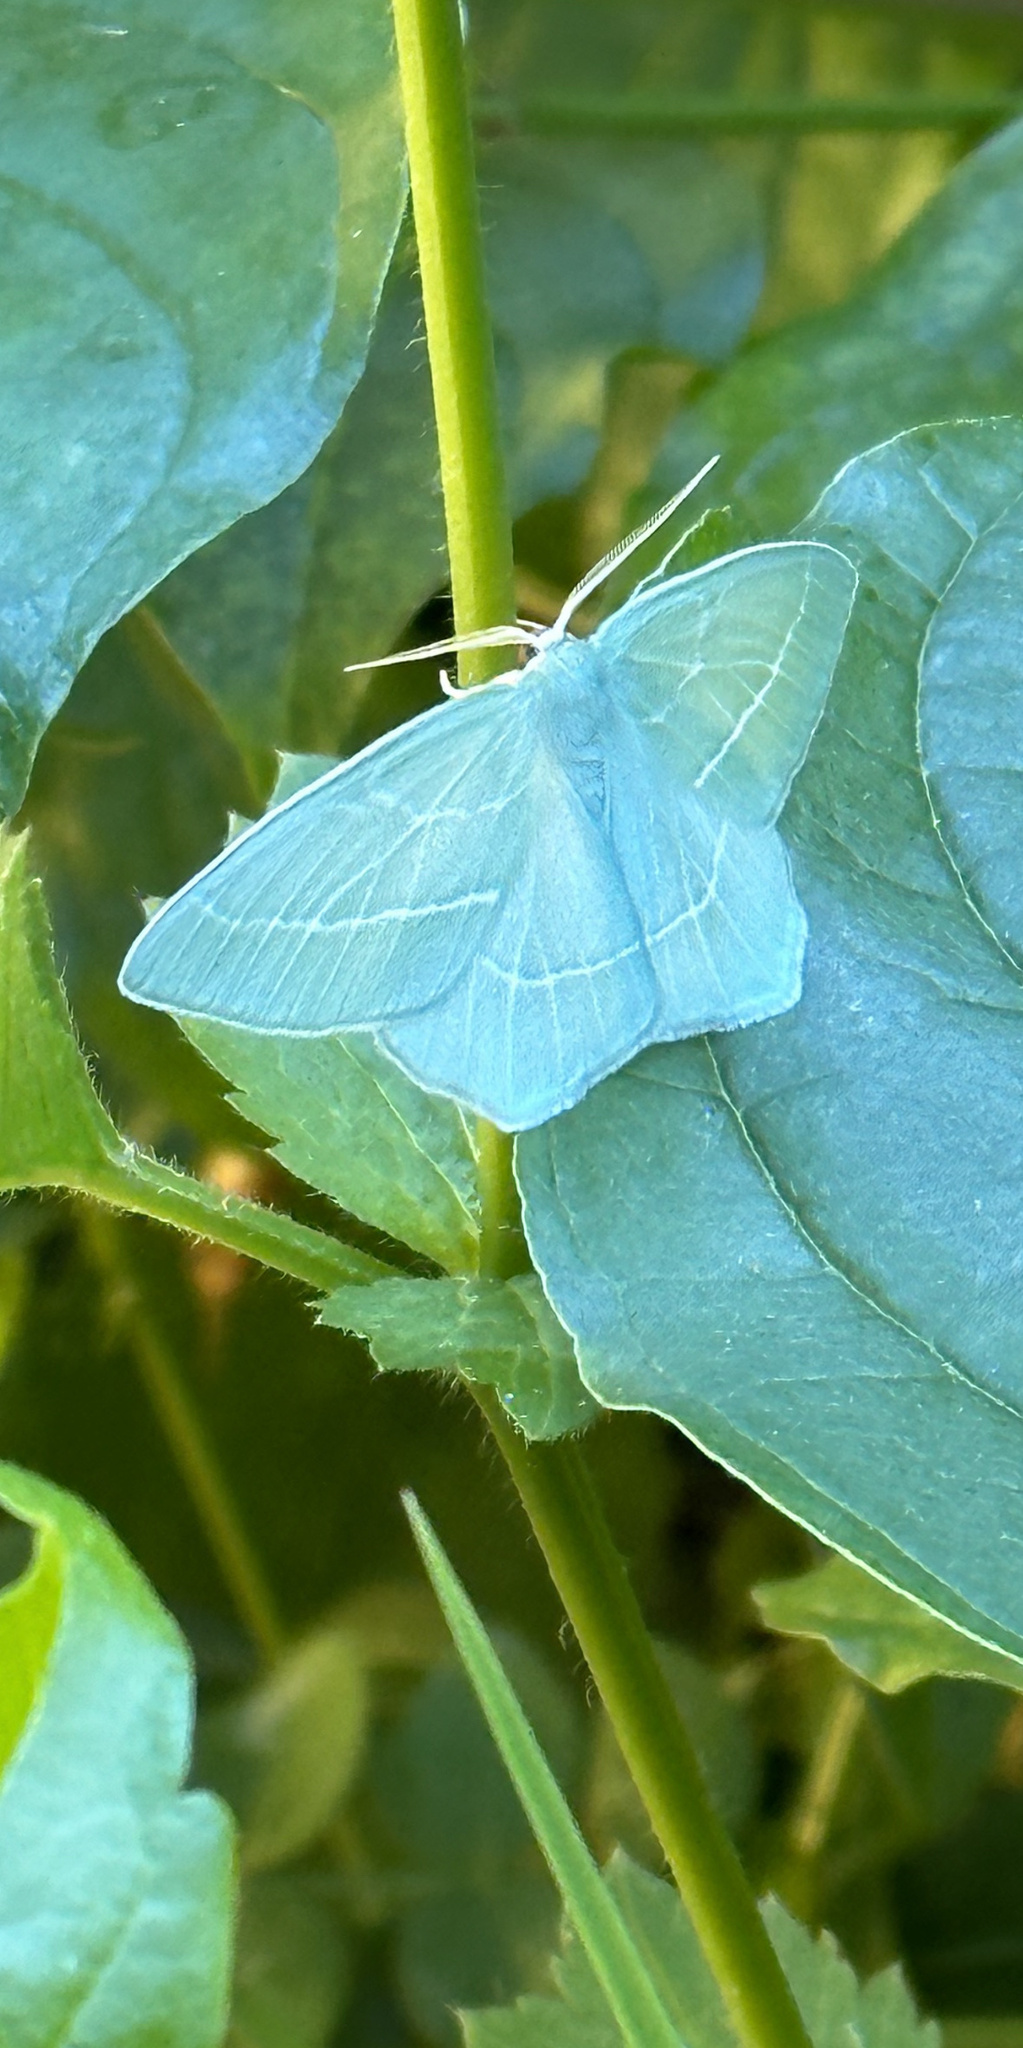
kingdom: Animalia
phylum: Arthropoda
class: Insecta
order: Lepidoptera
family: Geometridae
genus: Hemistola
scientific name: Hemistola chrysoprasaria
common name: Small emerald
